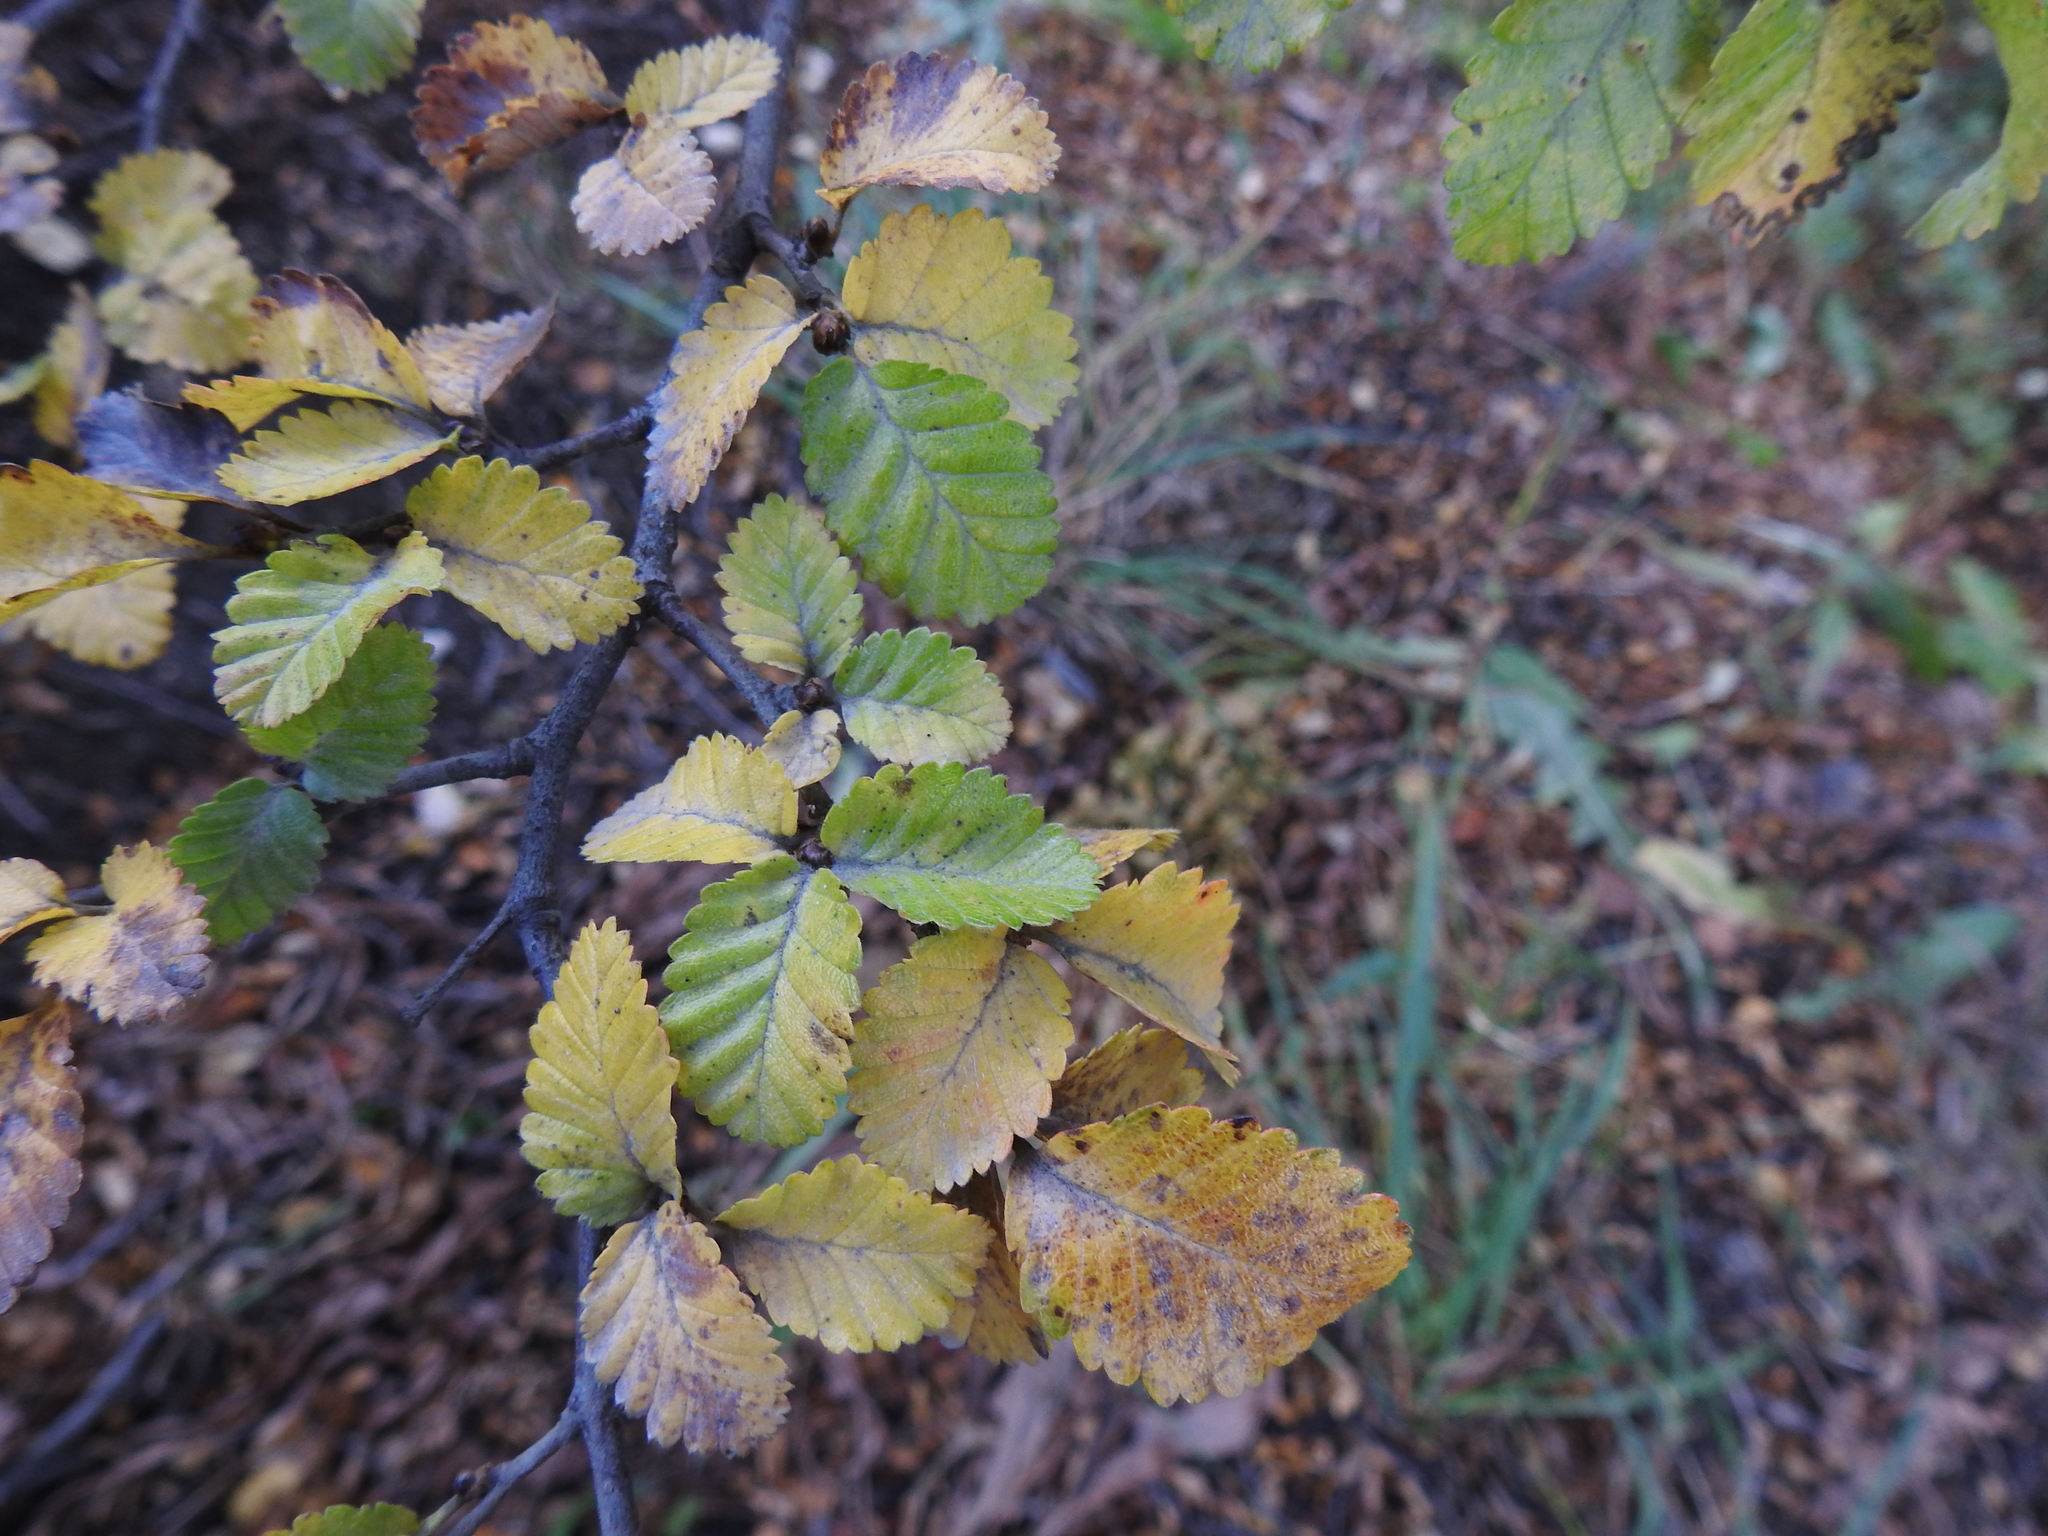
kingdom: Plantae
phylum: Tracheophyta
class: Magnoliopsida
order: Fagales
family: Nothofagaceae
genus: Nothofagus
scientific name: Nothofagus pumilio
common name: Lenga beech
